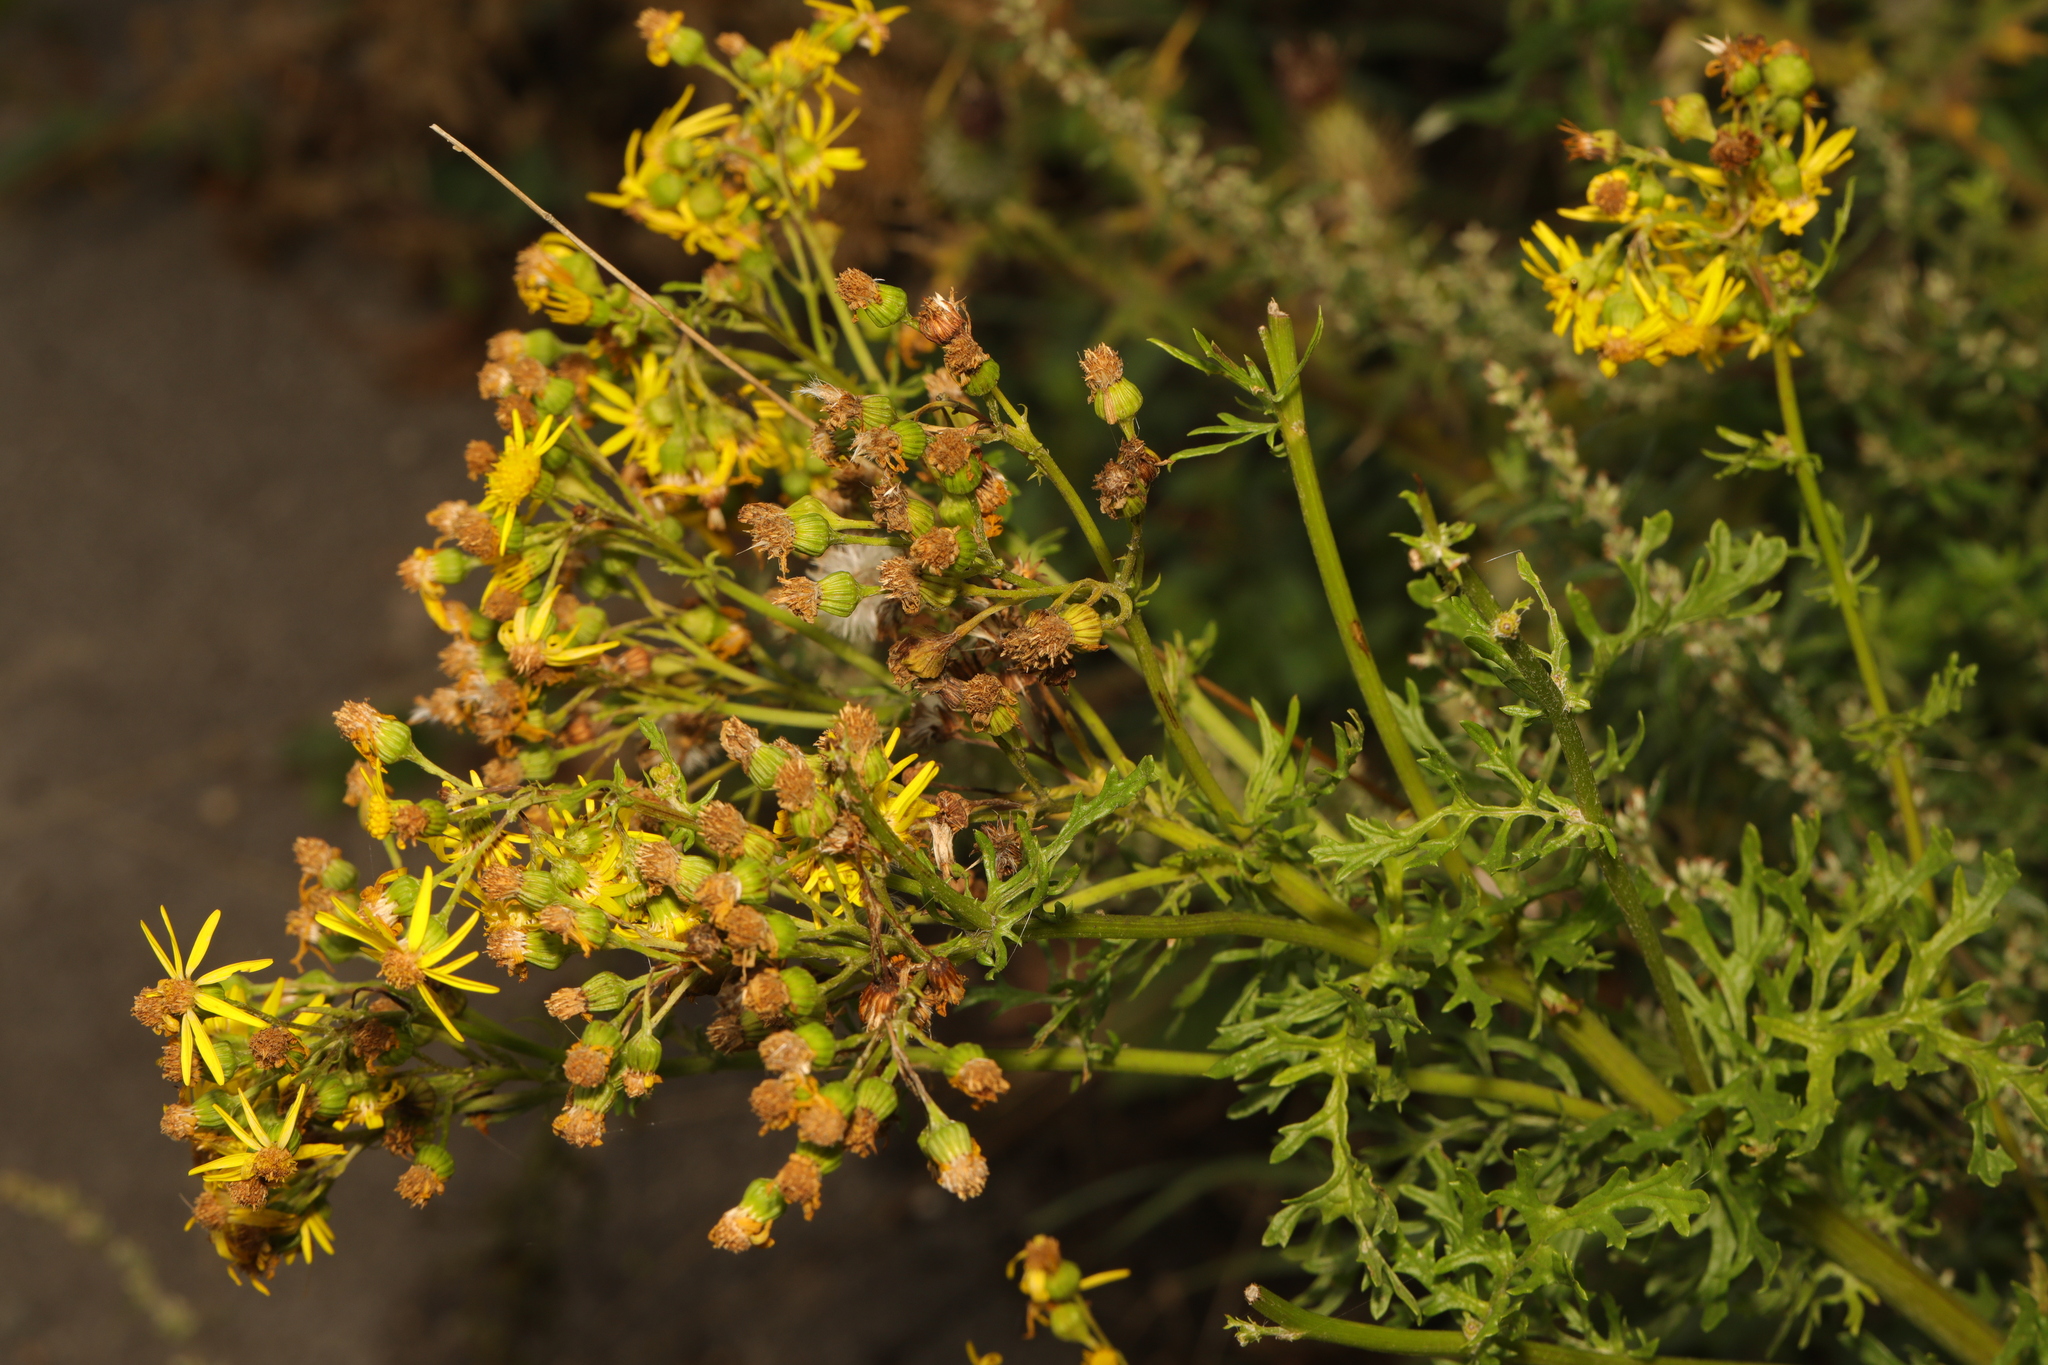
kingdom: Plantae
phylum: Tracheophyta
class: Magnoliopsida
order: Asterales
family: Asteraceae
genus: Jacobaea
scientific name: Jacobaea vulgaris
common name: Stinking willie
